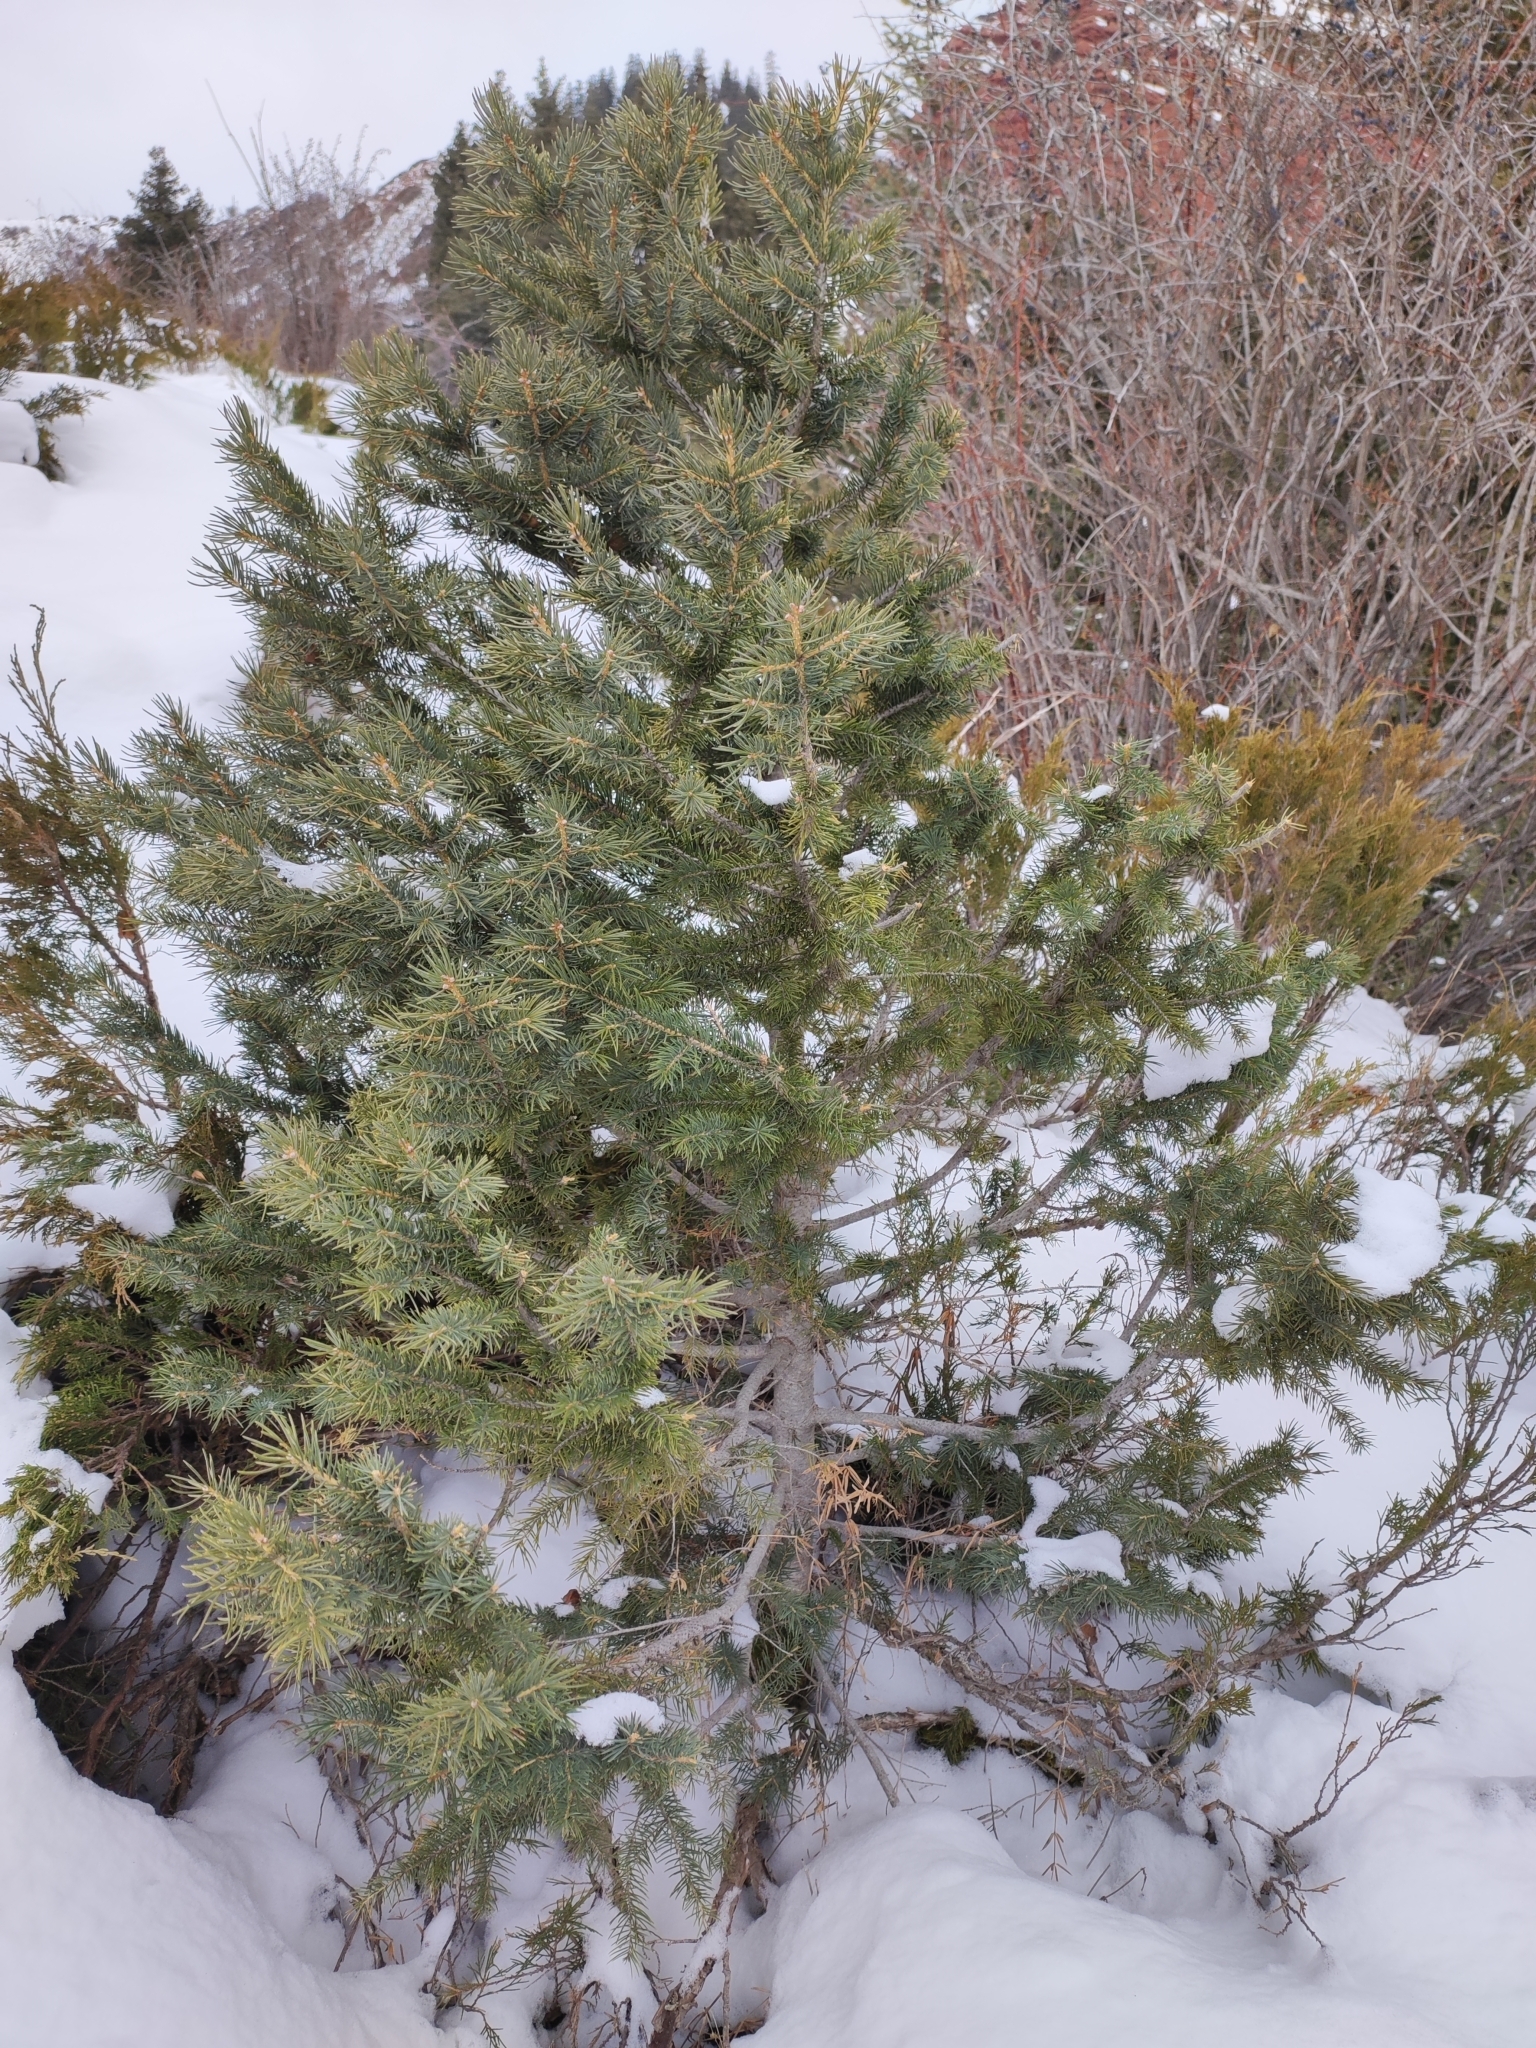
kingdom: Plantae
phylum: Tracheophyta
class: Pinopsida
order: Pinales
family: Pinaceae
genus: Picea
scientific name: Picea schrenkiana
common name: Asian spruce
